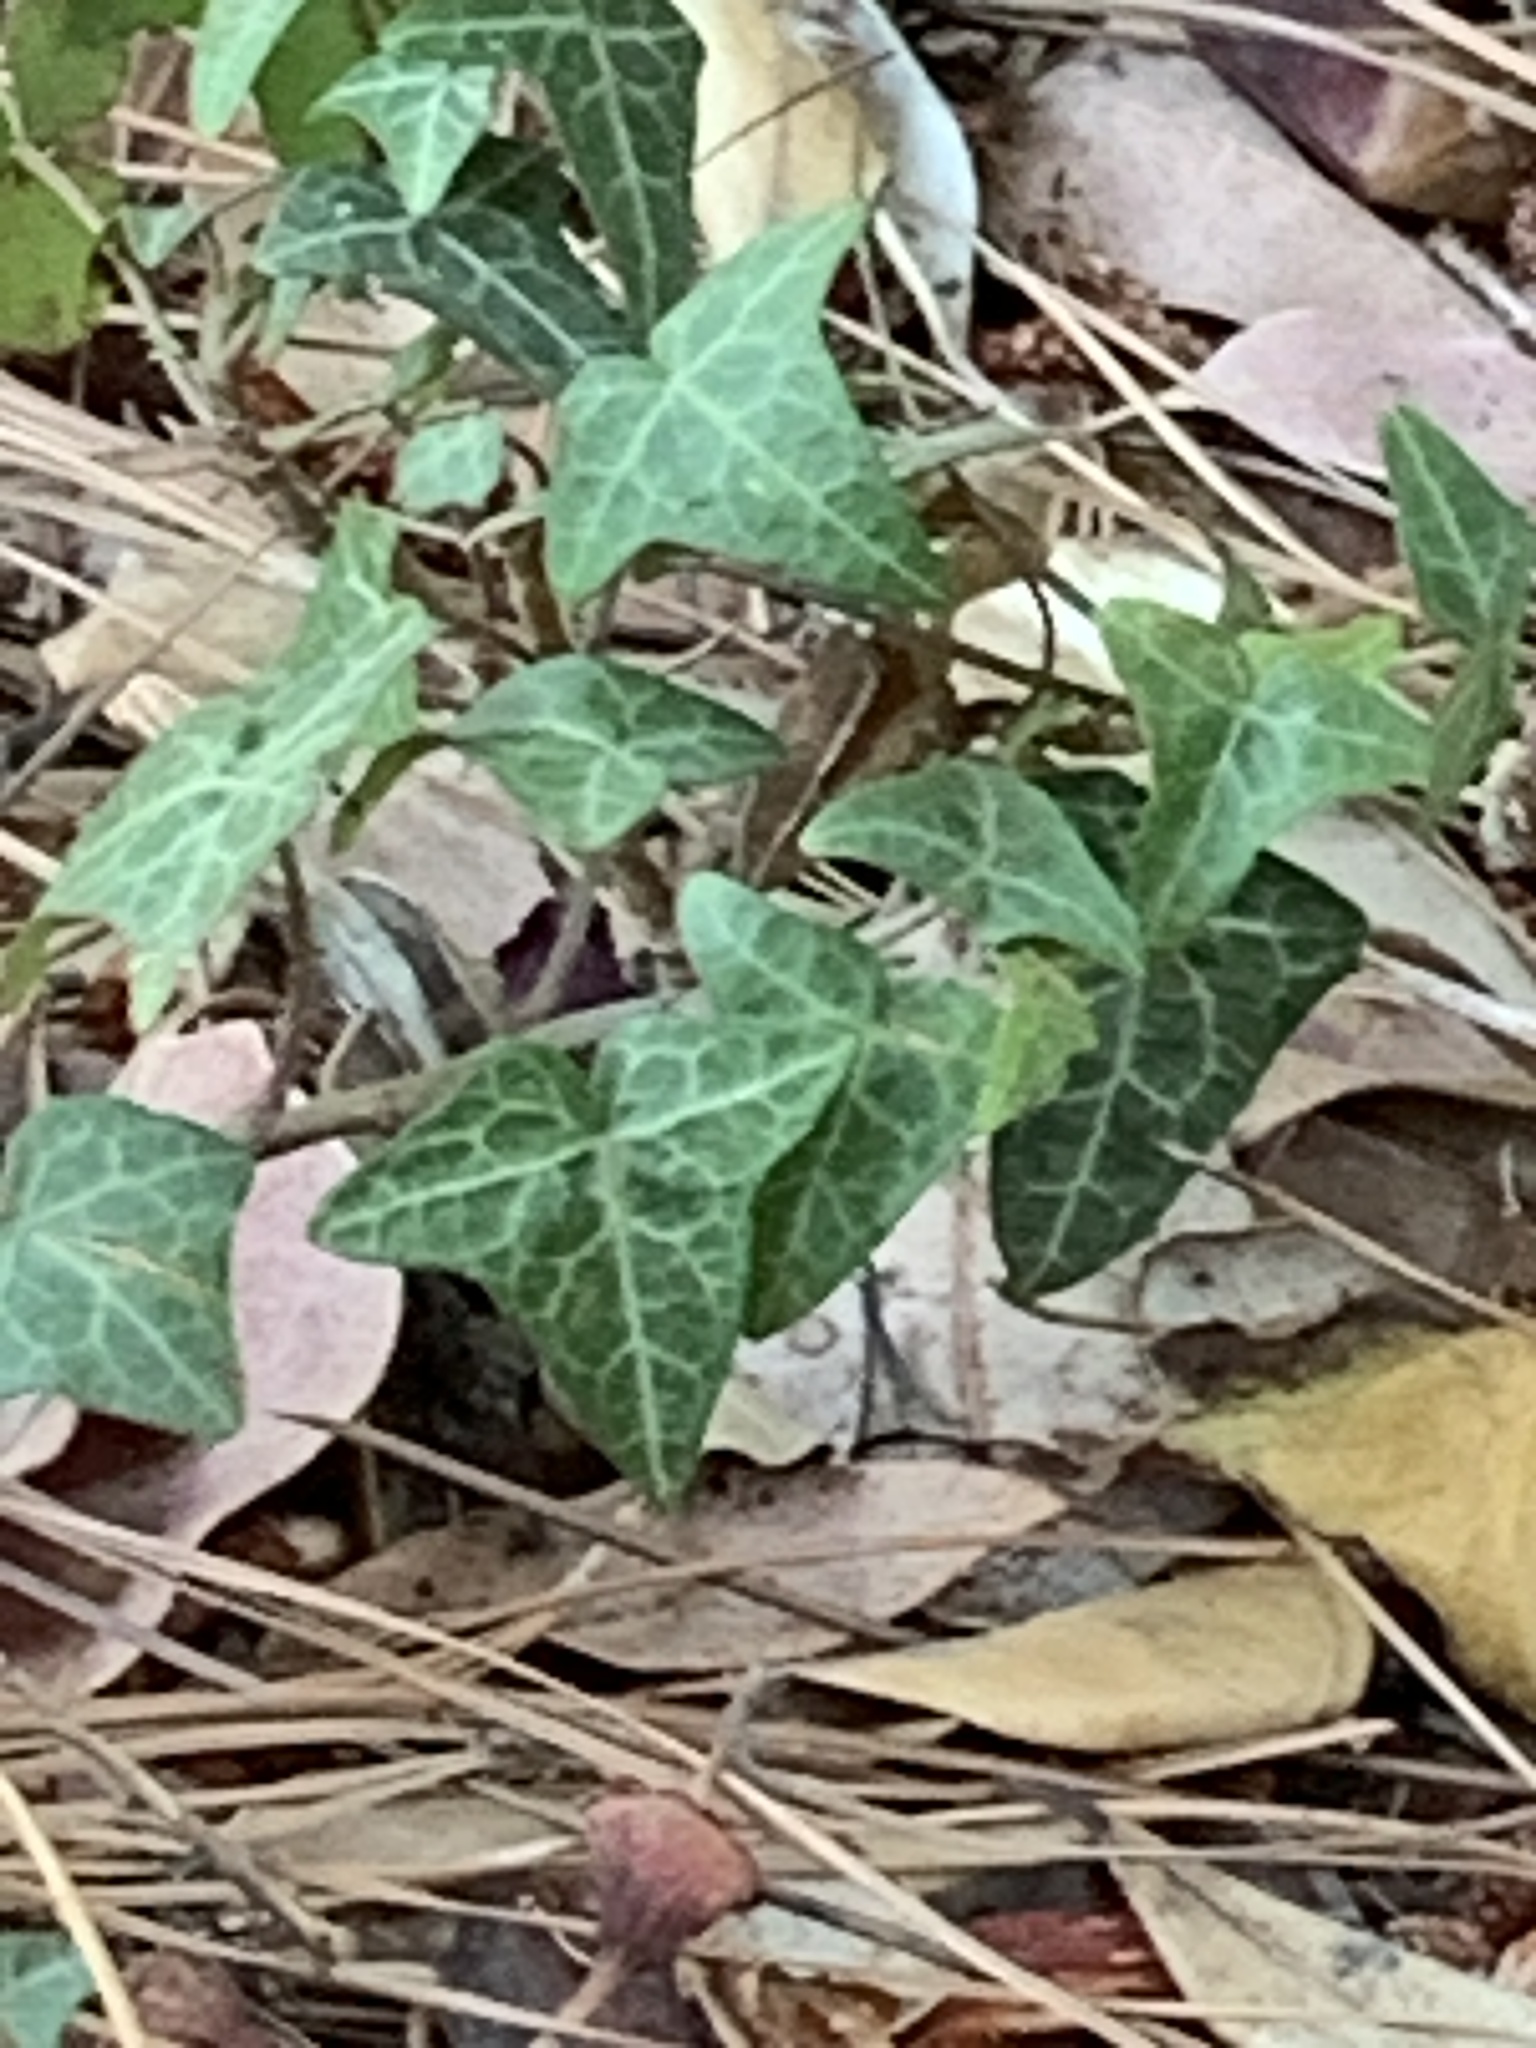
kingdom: Plantae
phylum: Tracheophyta
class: Magnoliopsida
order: Apiales
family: Araliaceae
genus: Hedera
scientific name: Hedera helix
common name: Ivy
